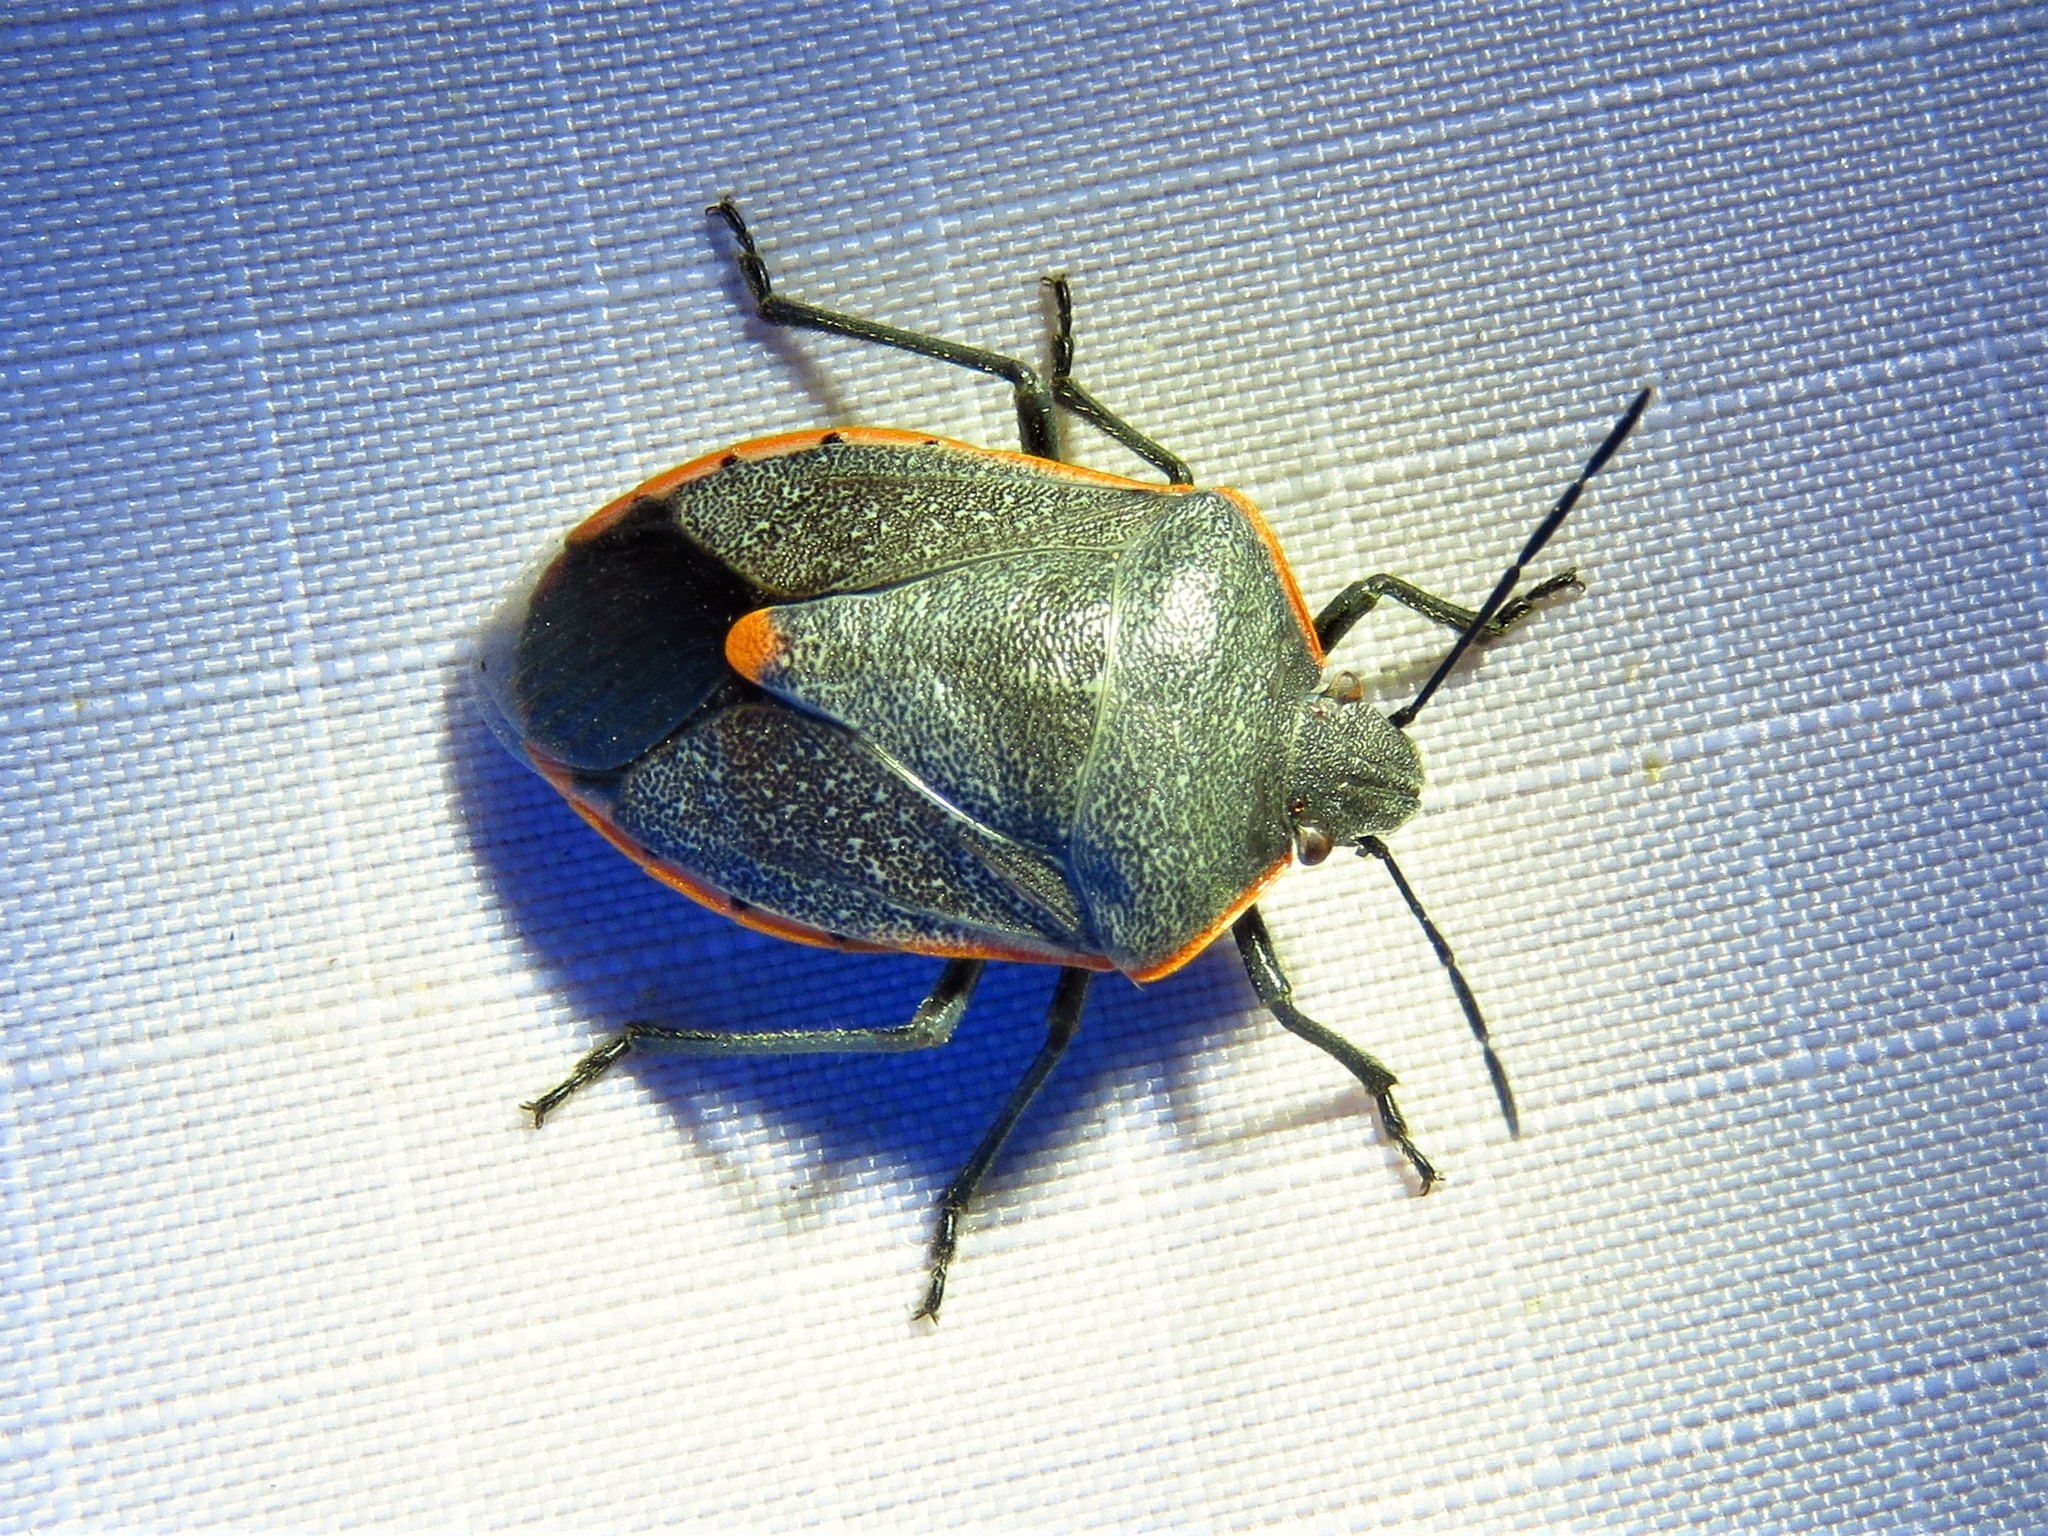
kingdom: Animalia
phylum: Arthropoda
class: Insecta
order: Hemiptera
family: Pentatomidae
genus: Chlorochroa
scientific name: Chlorochroa ligata
